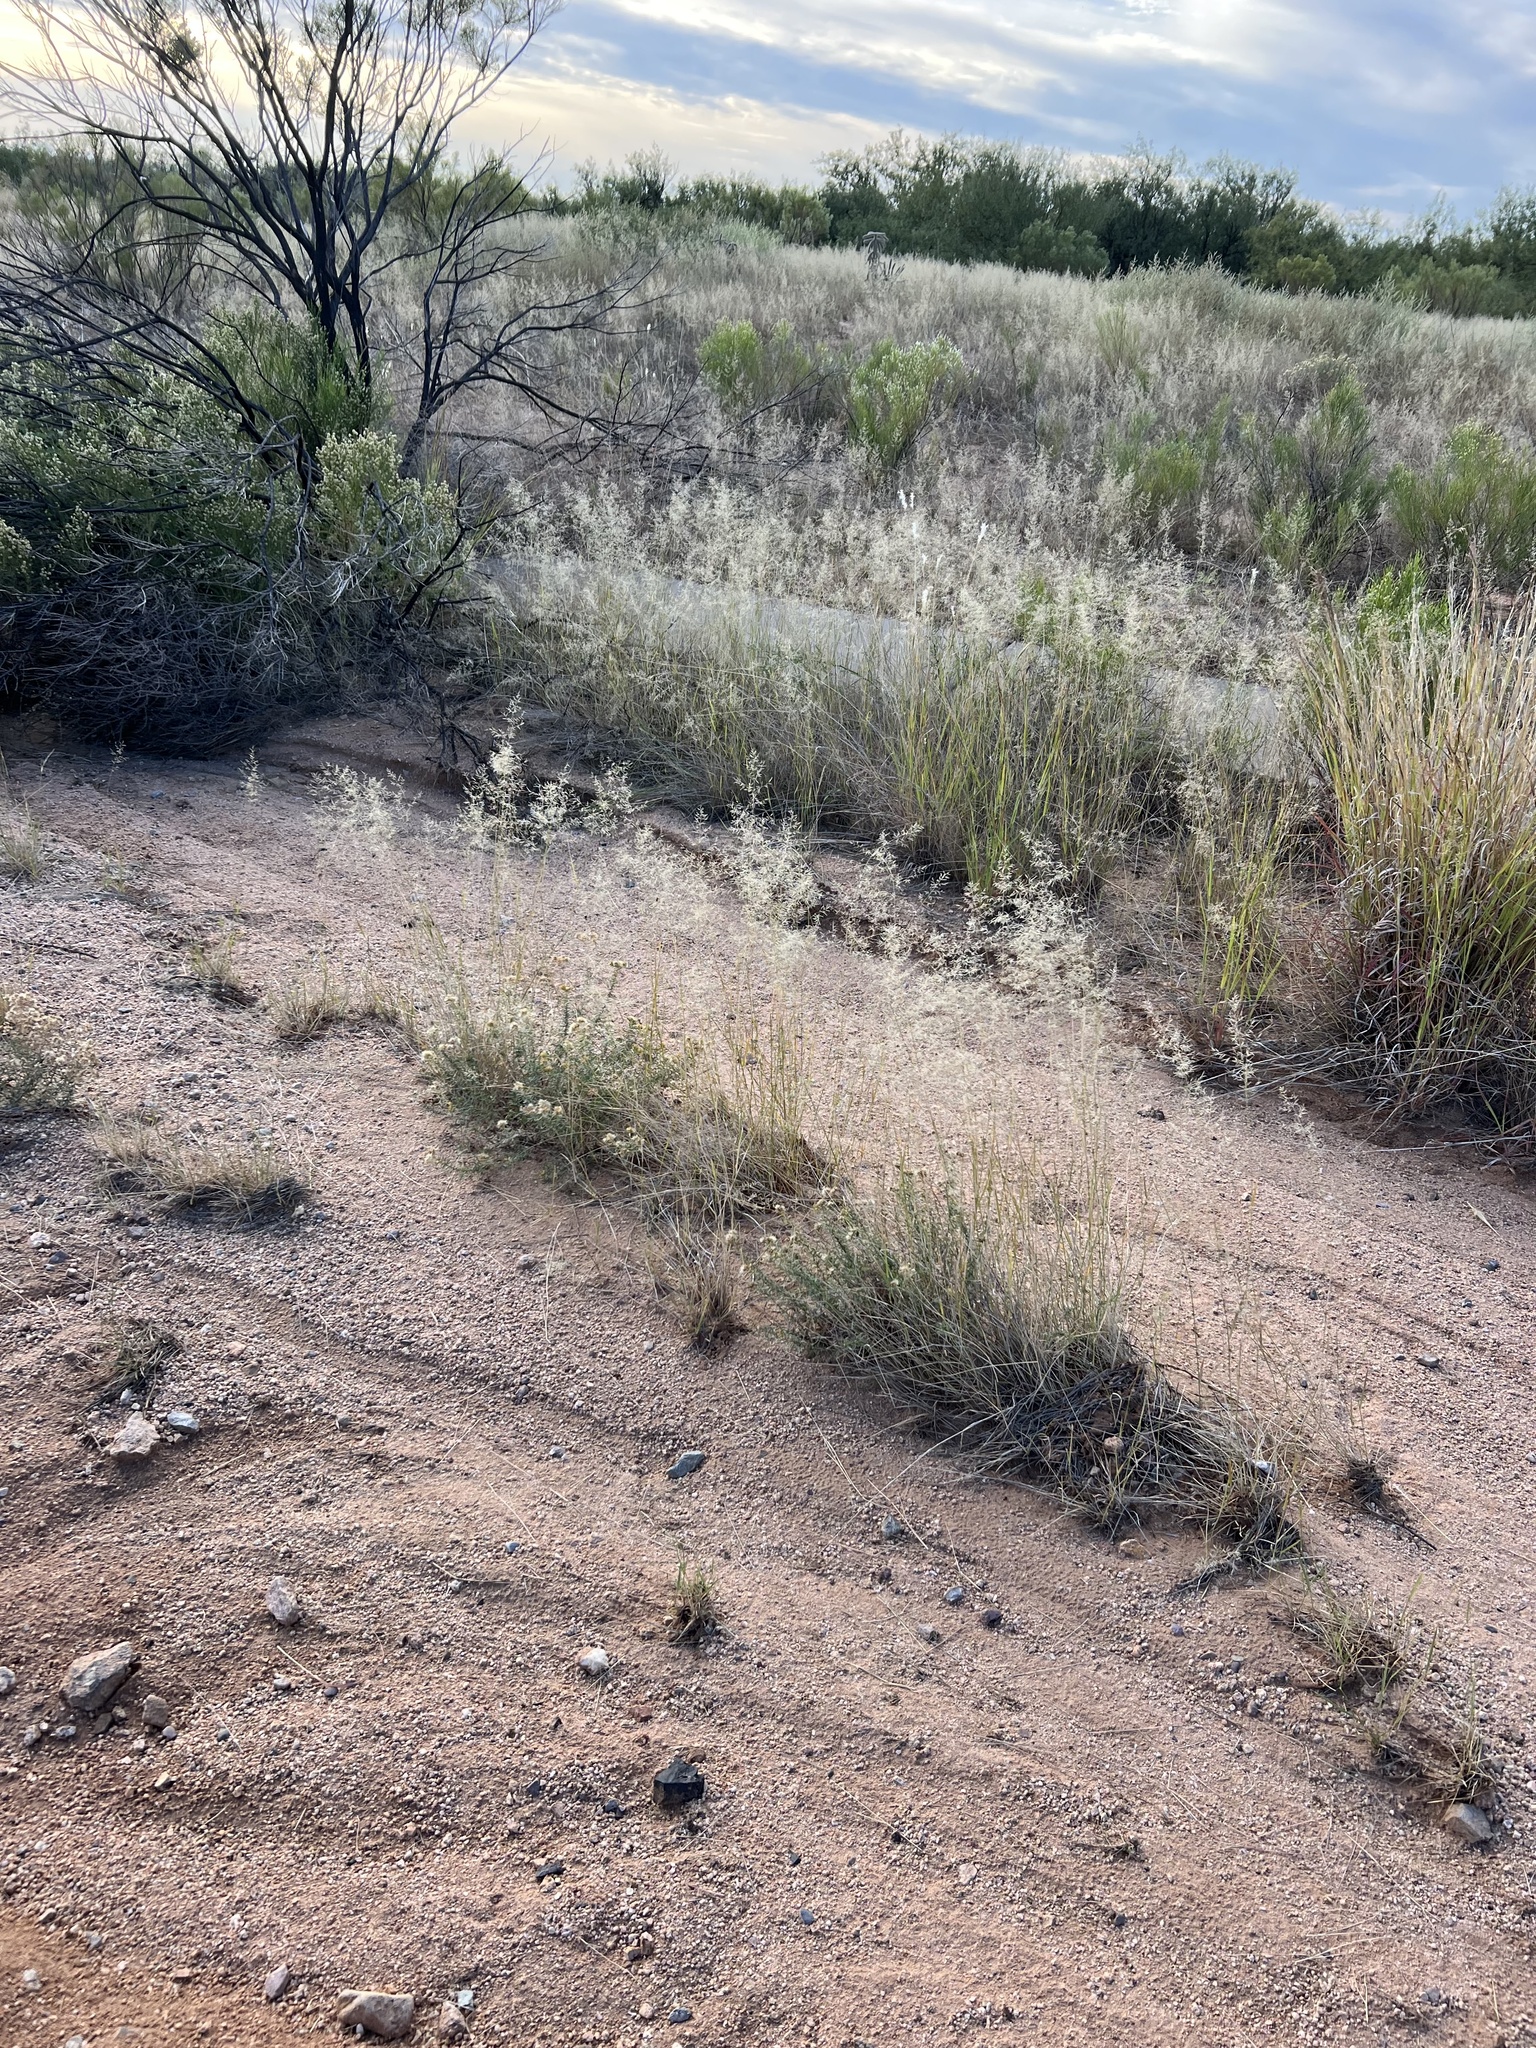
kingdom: Plantae
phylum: Tracheophyta
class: Liliopsida
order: Poales
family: Poaceae
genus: Eragrostis
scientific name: Eragrostis lehmanniana
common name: Lehmann lovegrass
